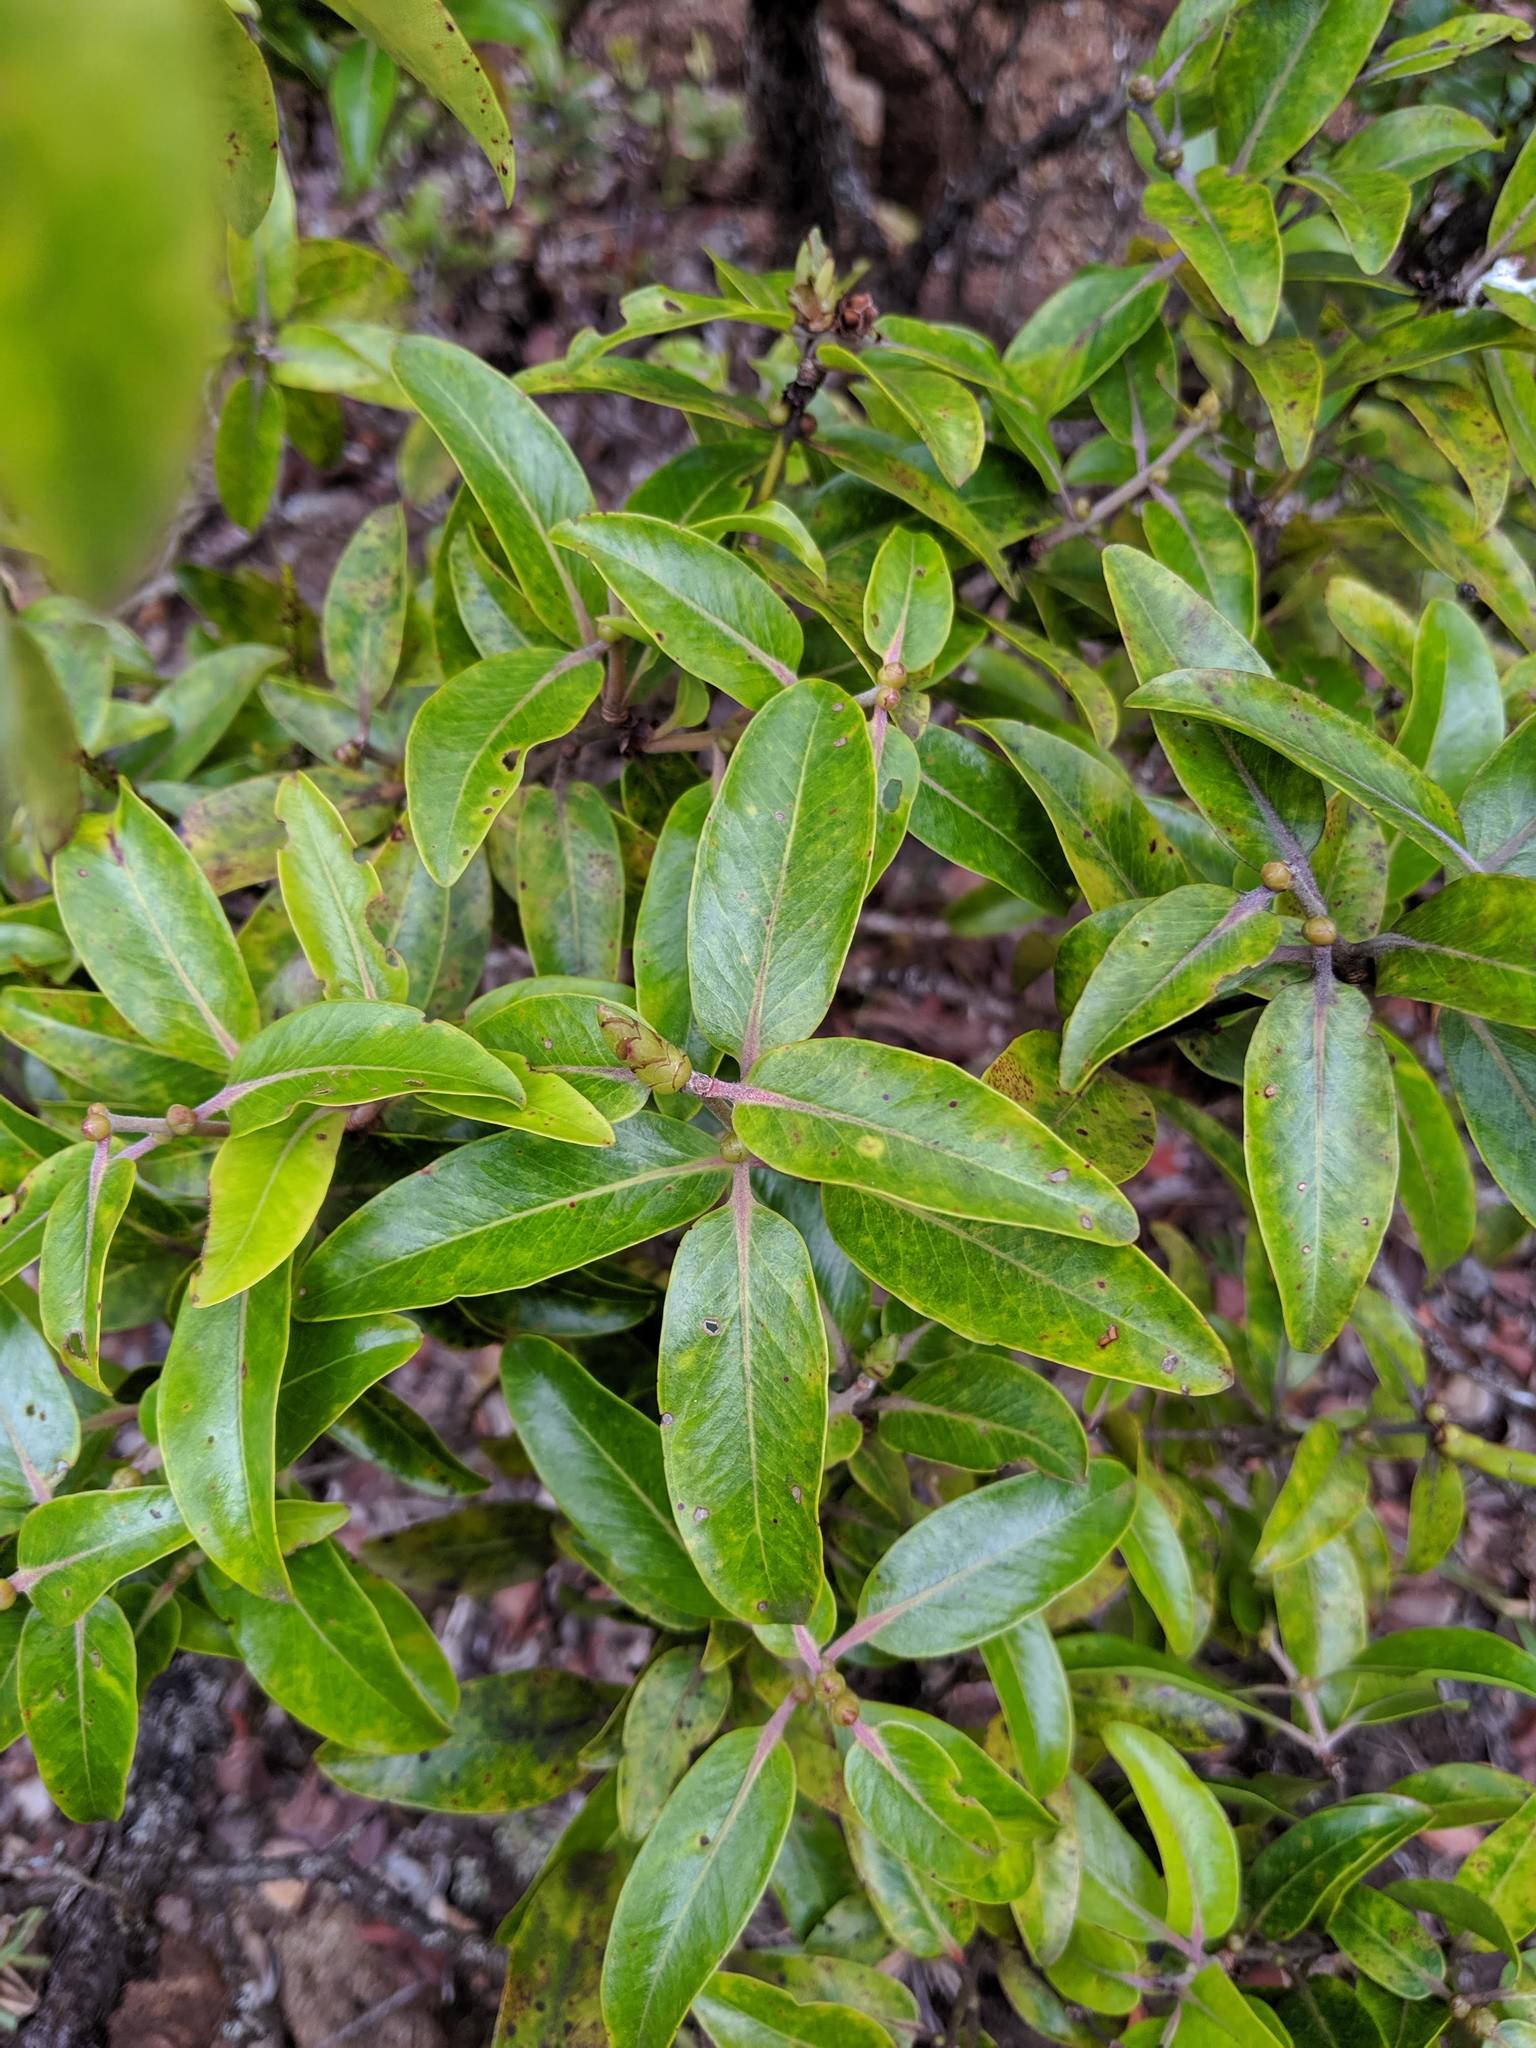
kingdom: Plantae
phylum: Tracheophyta
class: Magnoliopsida
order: Myrtales
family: Myrtaceae
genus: Metrosideros
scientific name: Metrosideros polymorpha
